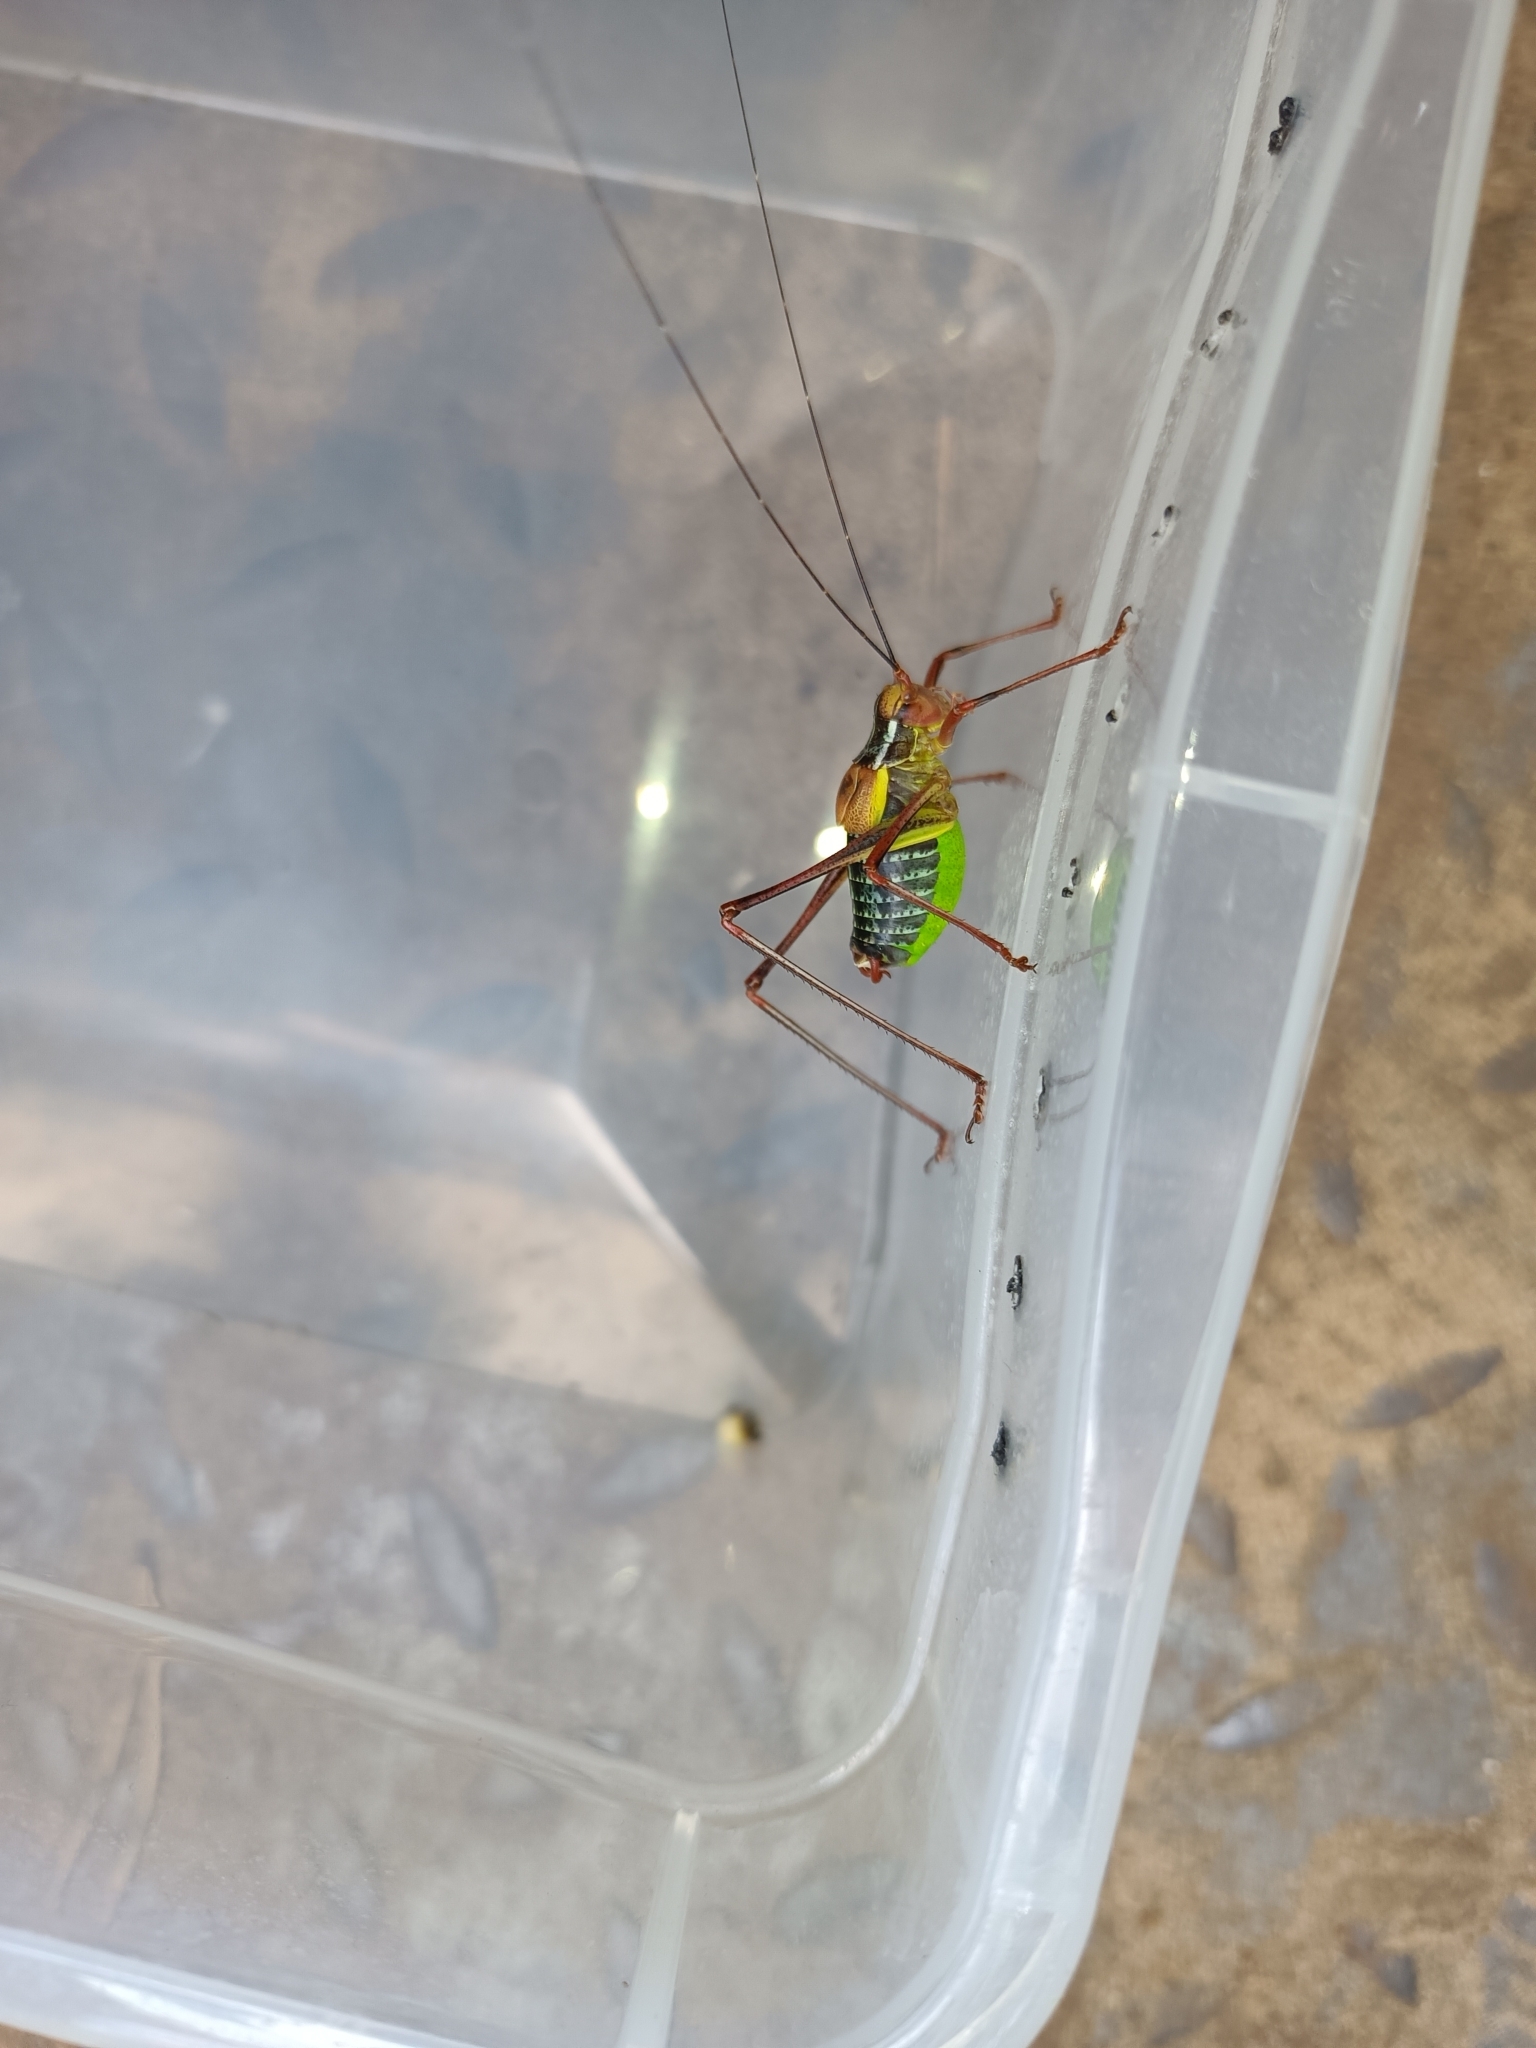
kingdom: Animalia
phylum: Arthropoda
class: Insecta
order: Orthoptera
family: Tettigoniidae
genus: Barbitistes
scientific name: Barbitistes constrictus
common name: Eastern saw-tailed bush cricket
